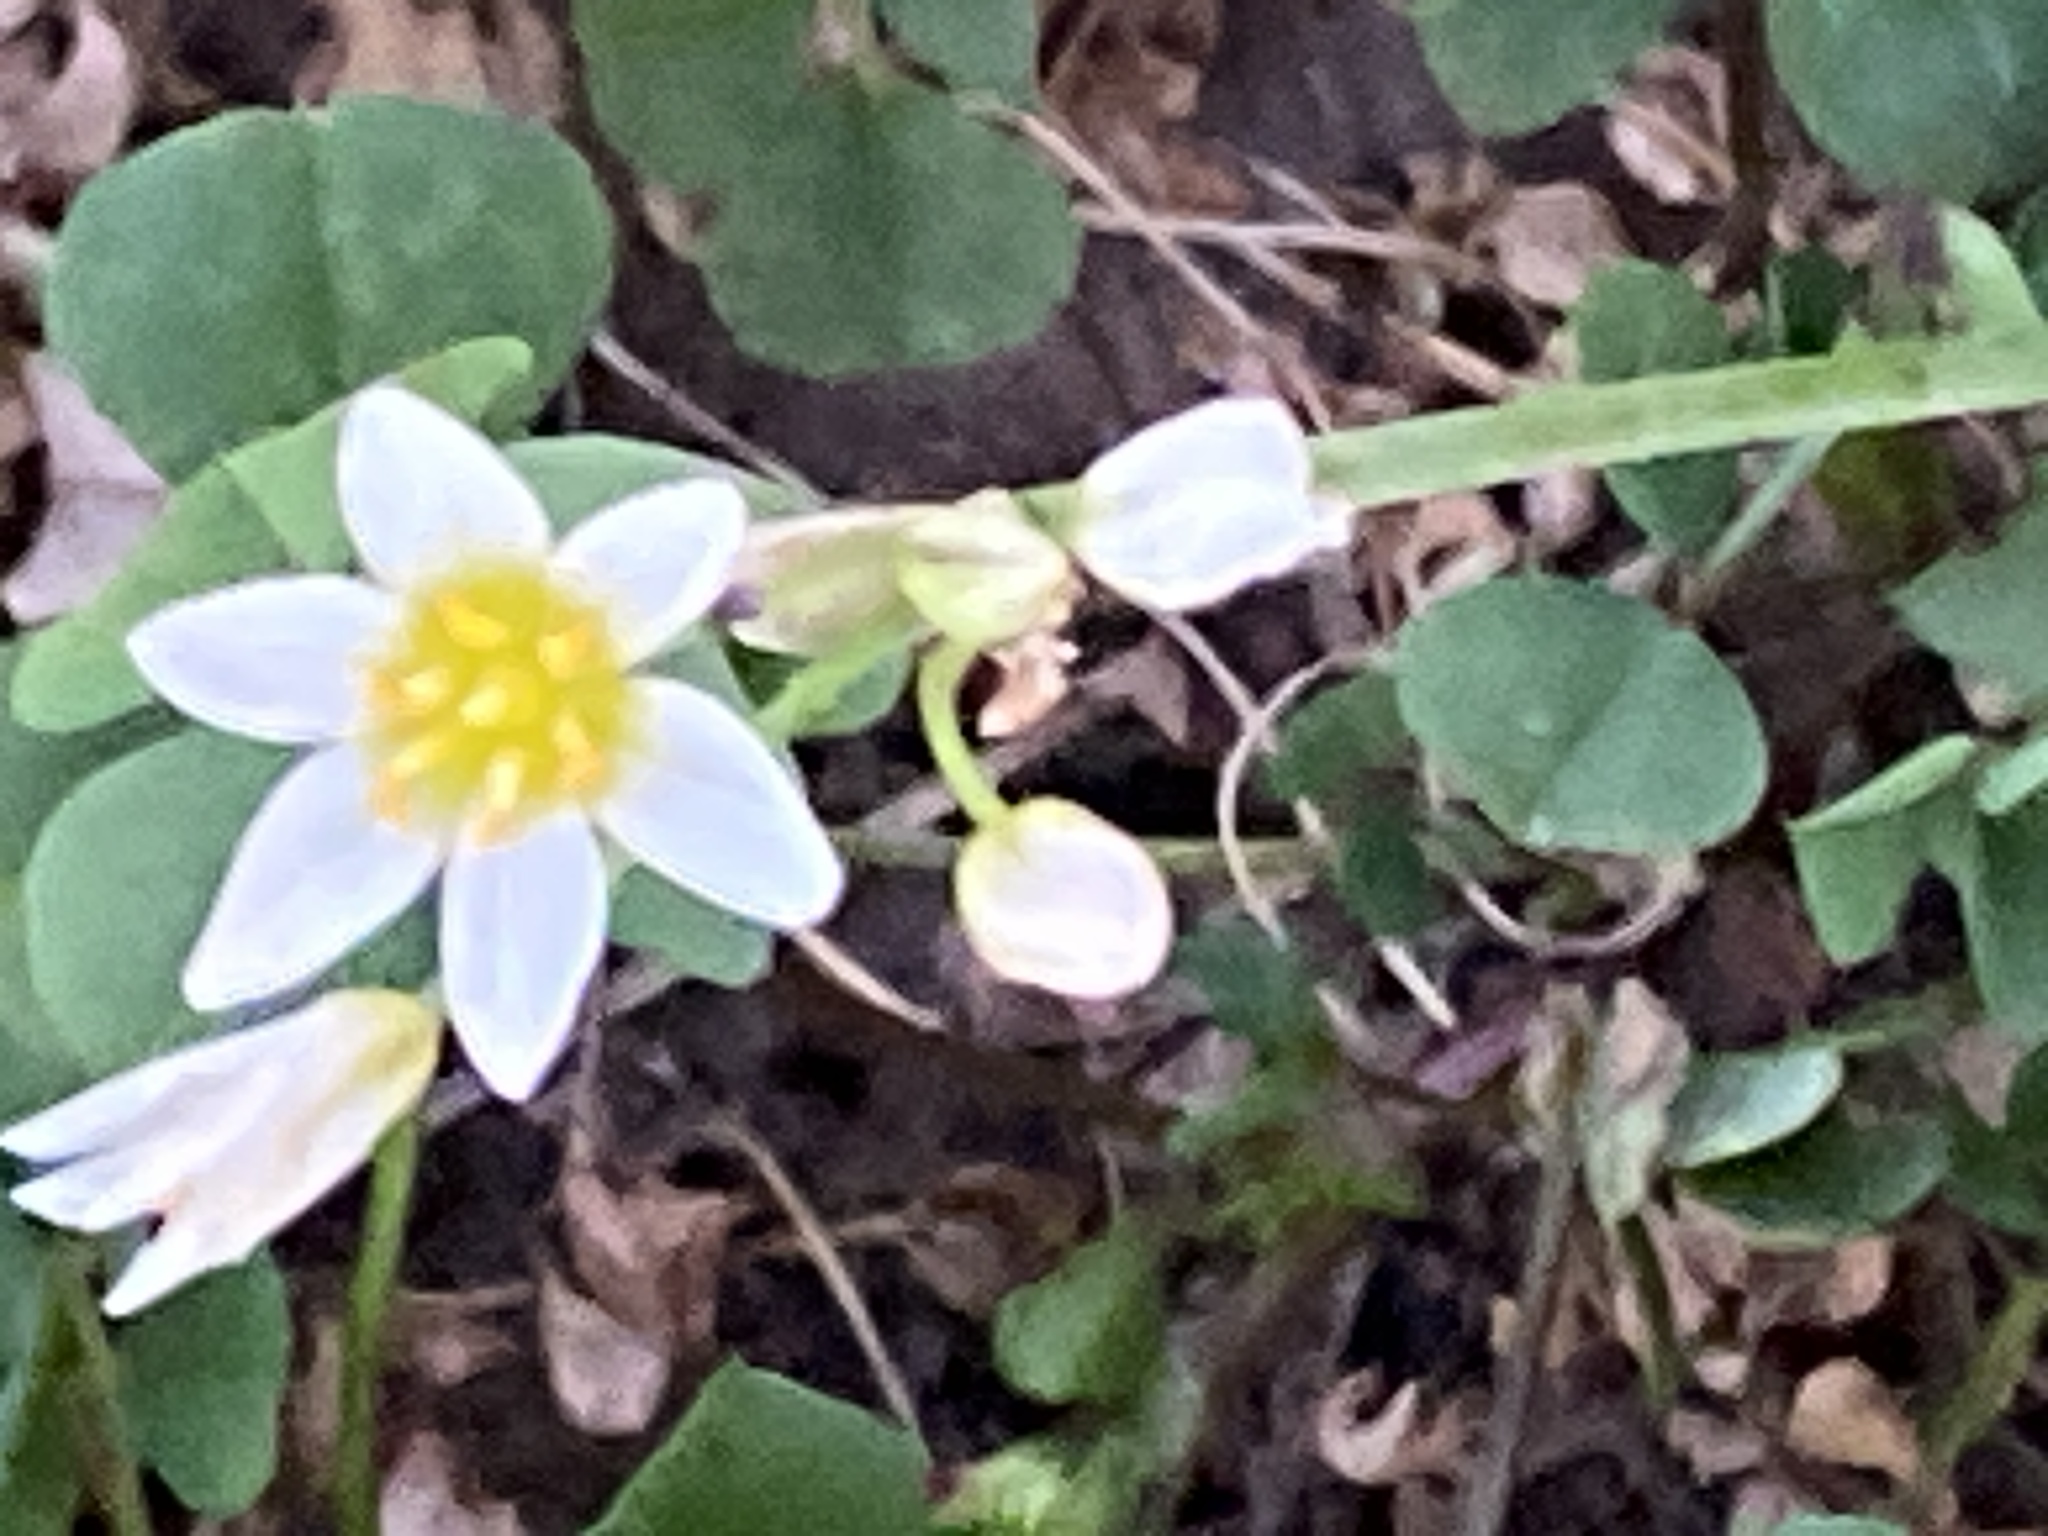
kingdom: Plantae
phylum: Tracheophyta
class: Liliopsida
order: Asparagales
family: Amaryllidaceae
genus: Nothoscordum
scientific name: Nothoscordum bivalve
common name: Crow-poison
